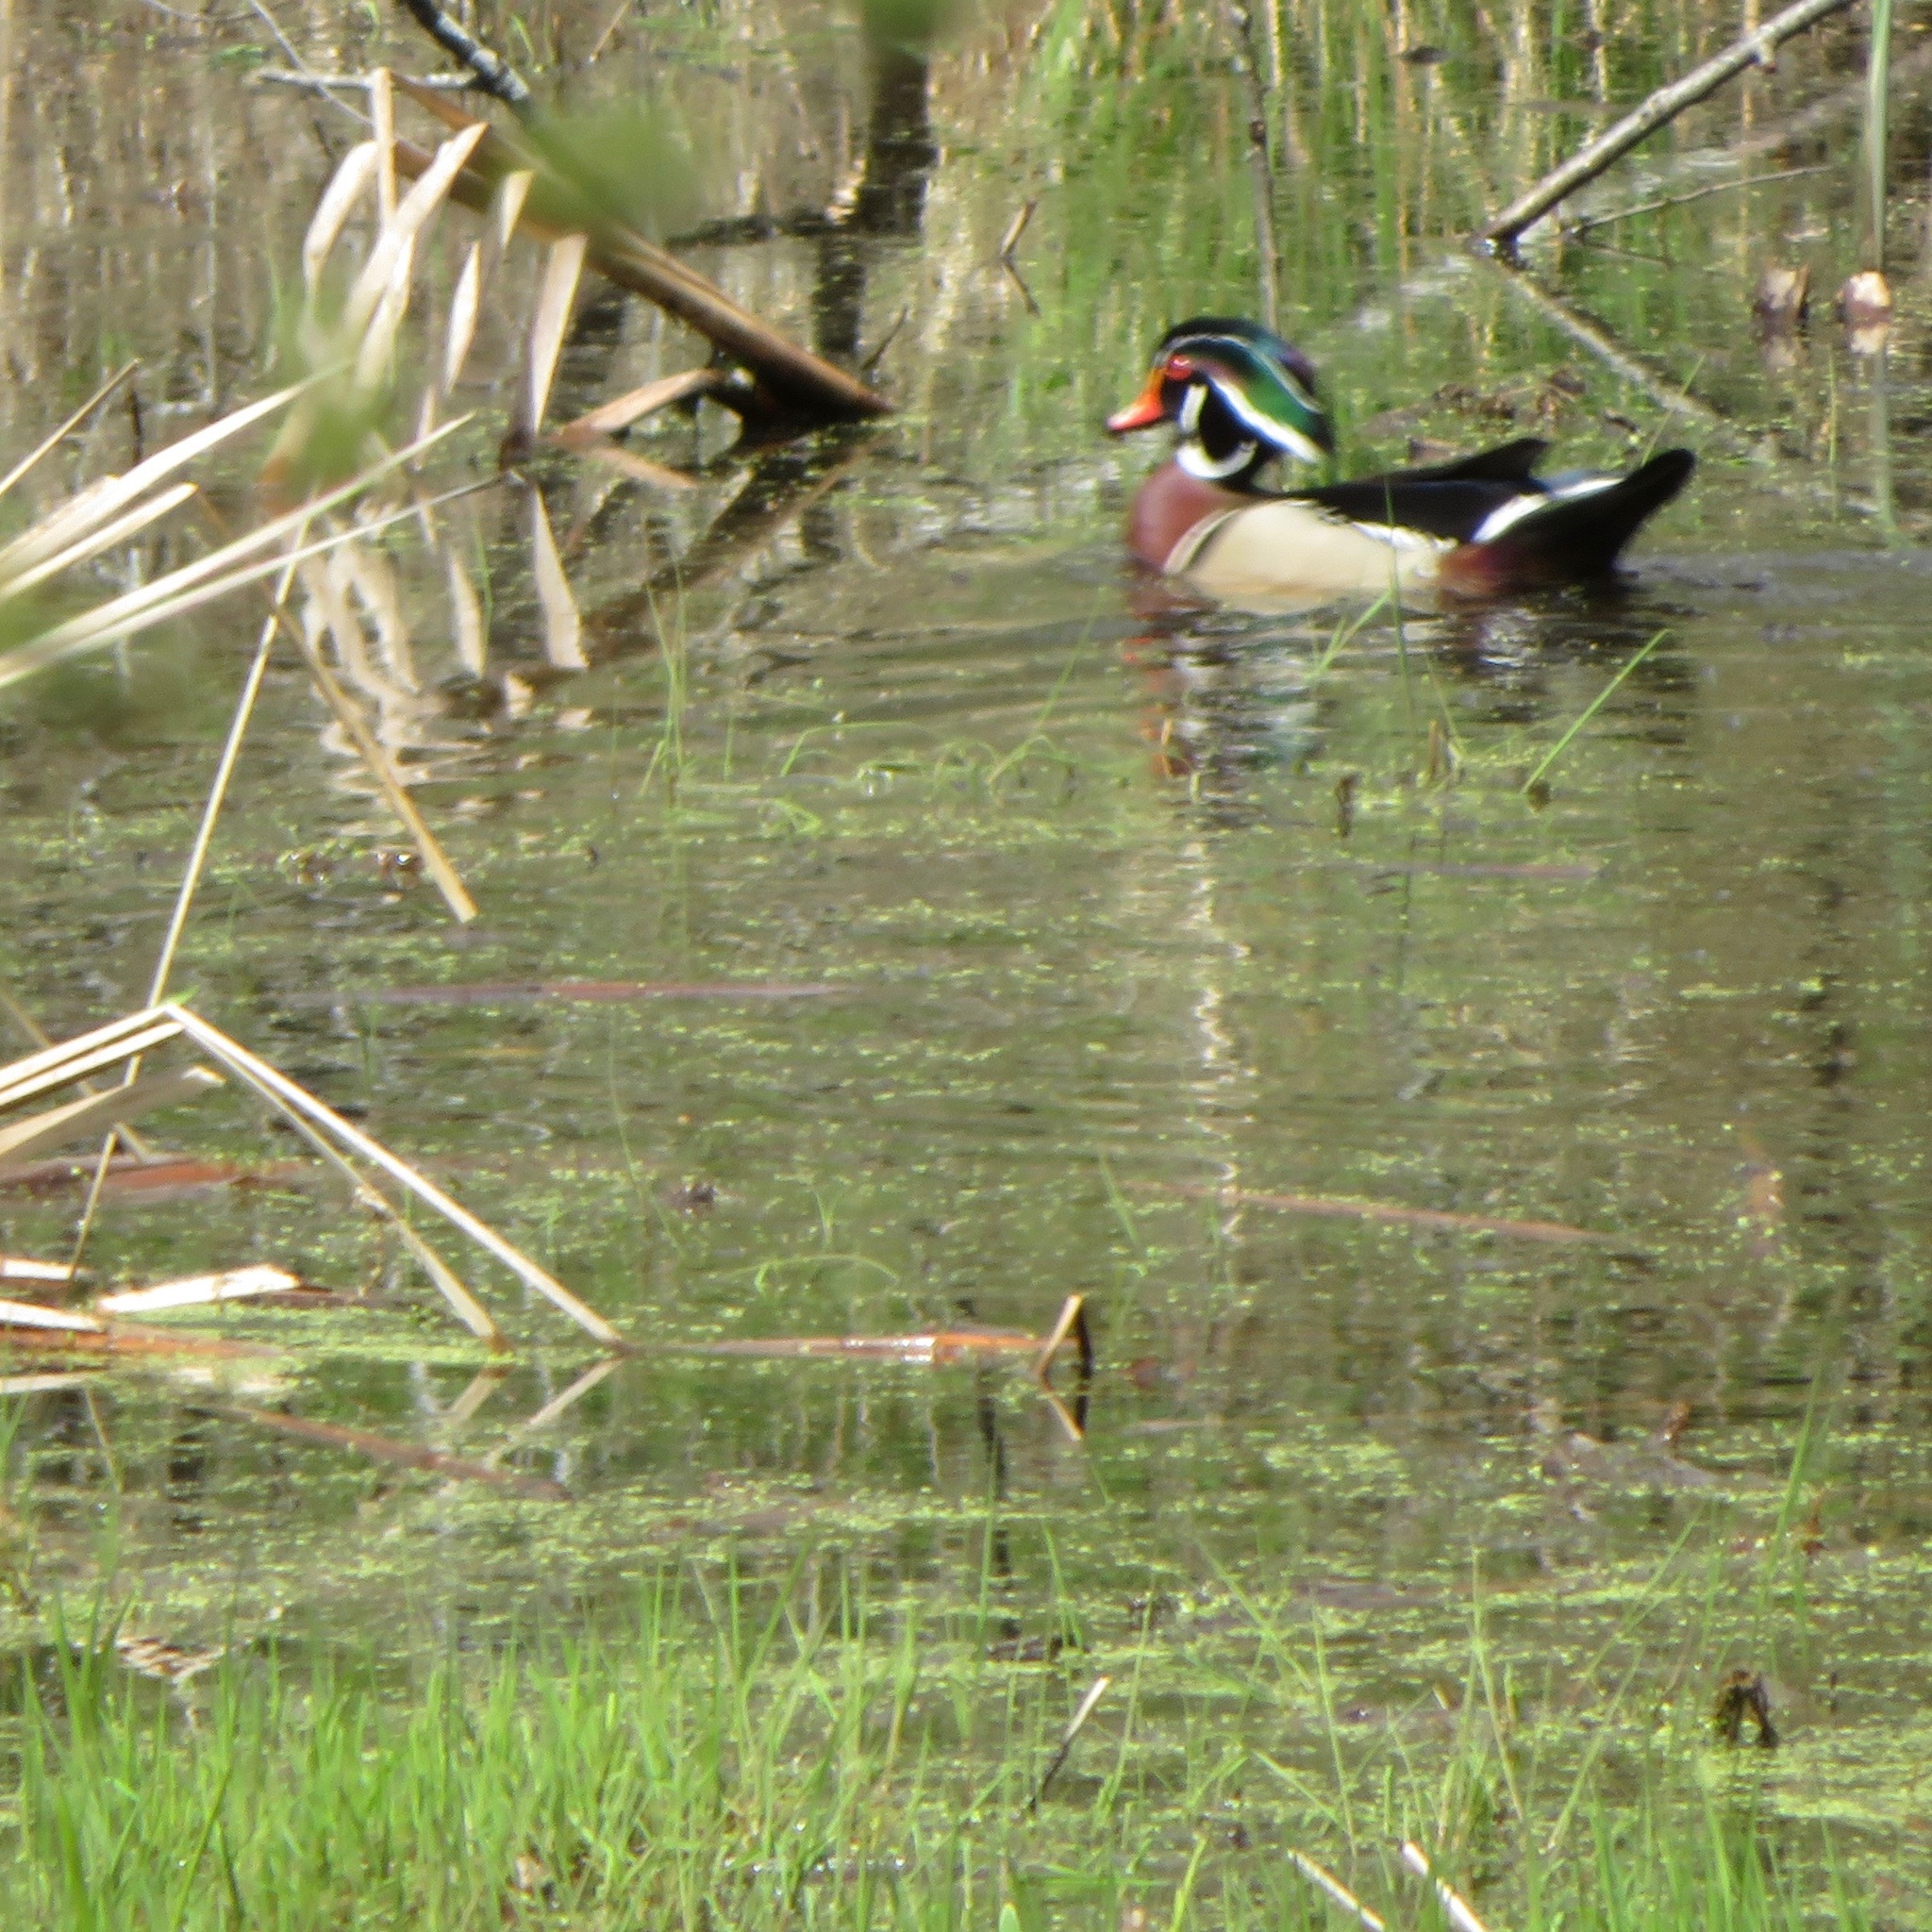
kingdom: Animalia
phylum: Chordata
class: Aves
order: Anseriformes
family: Anatidae
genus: Aix
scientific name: Aix sponsa
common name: Wood duck
